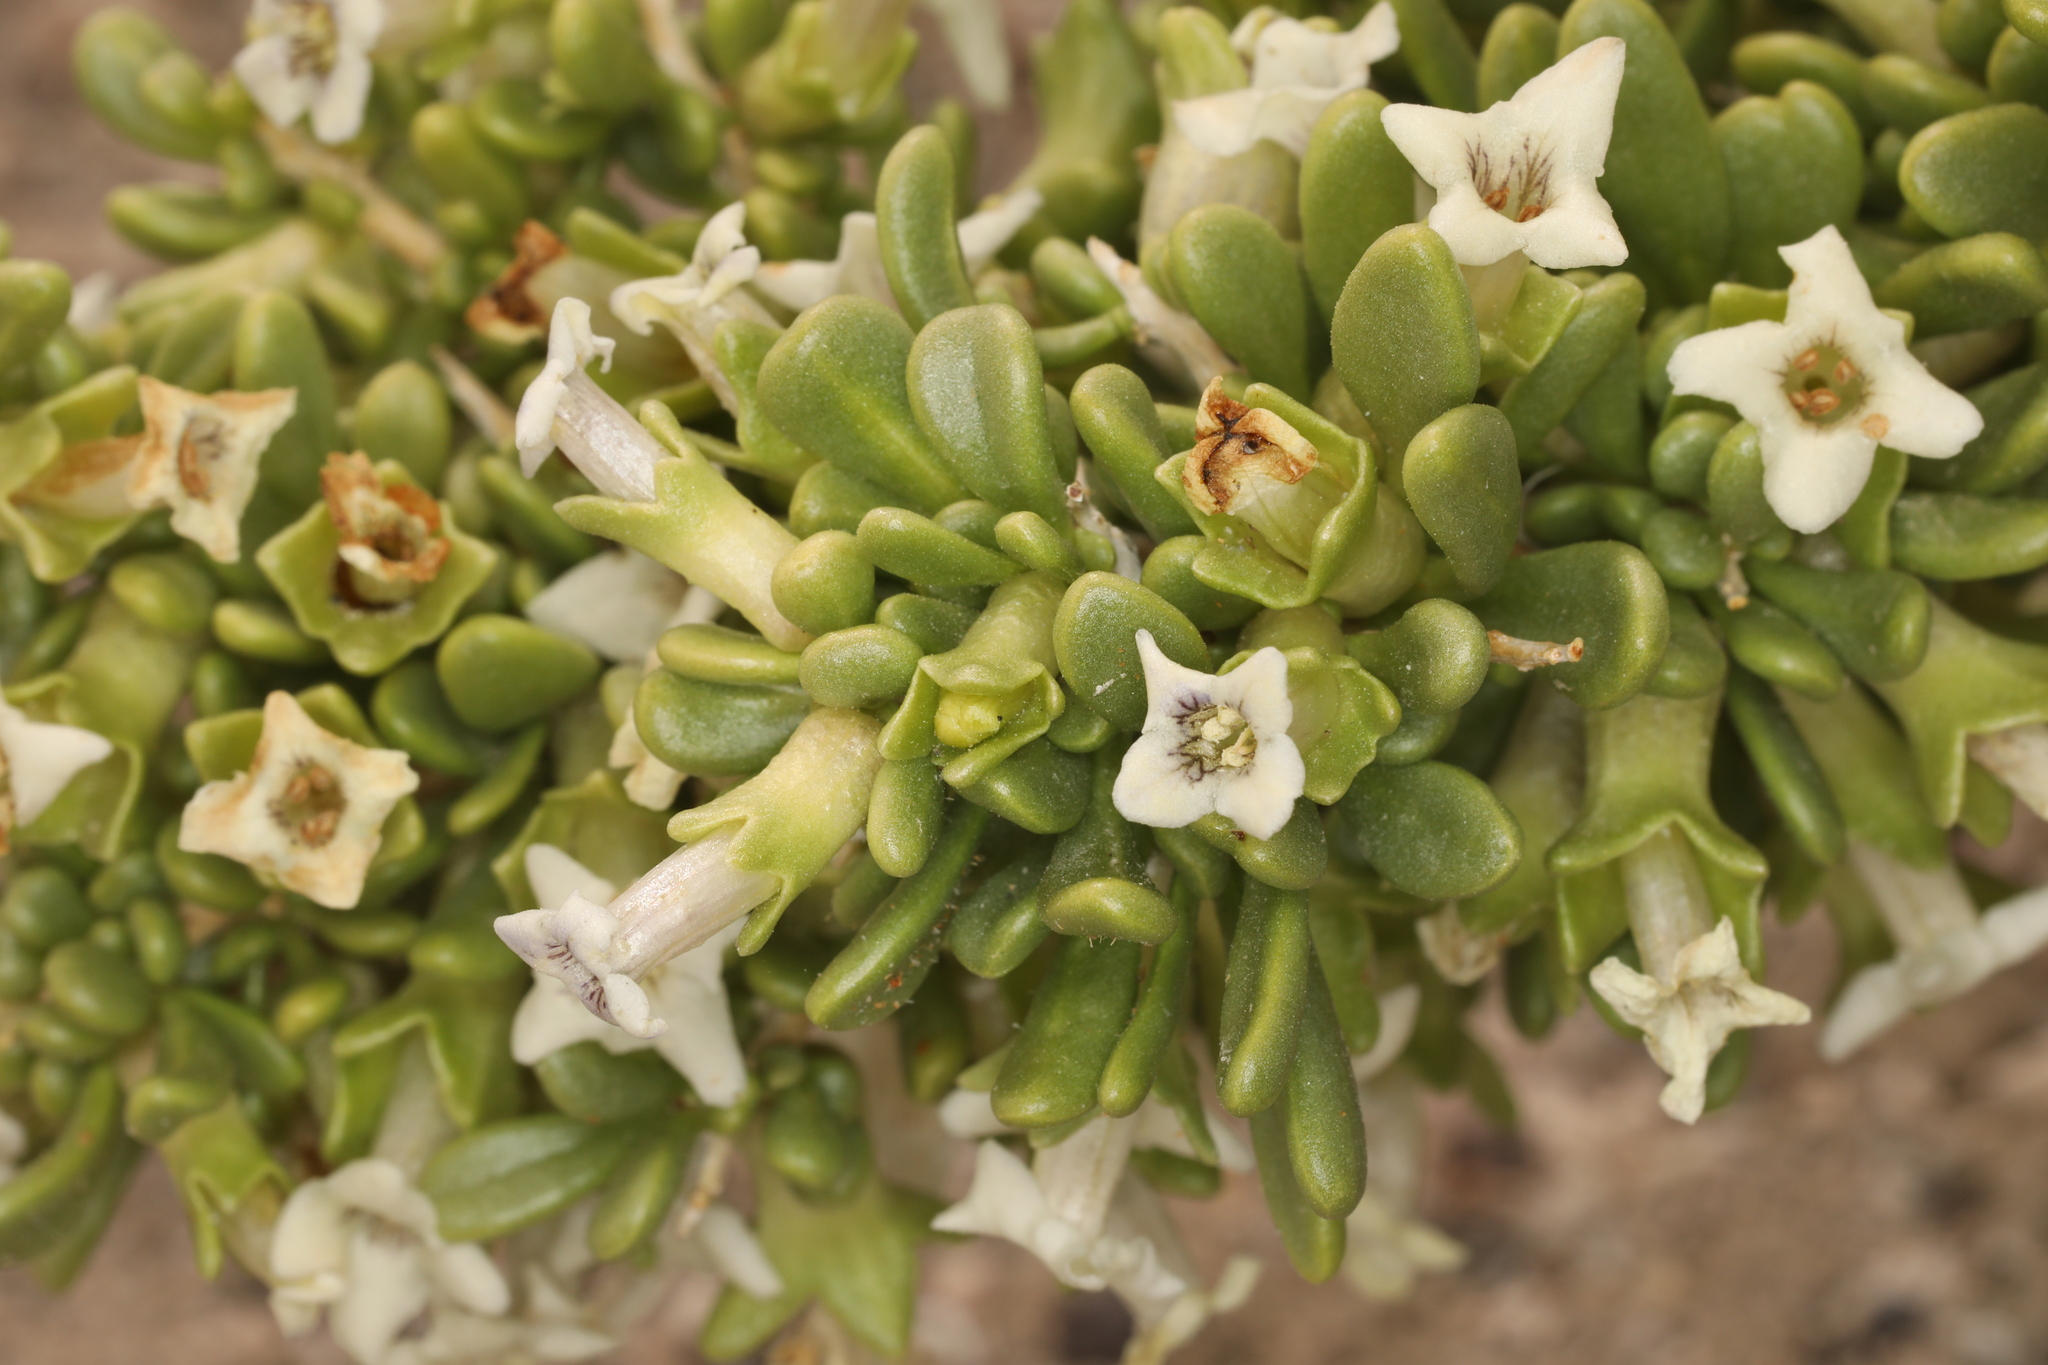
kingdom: Plantae
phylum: Tracheophyta
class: Magnoliopsida
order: Solanales
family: Solanaceae
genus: Lycium
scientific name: Lycium shockleyi
